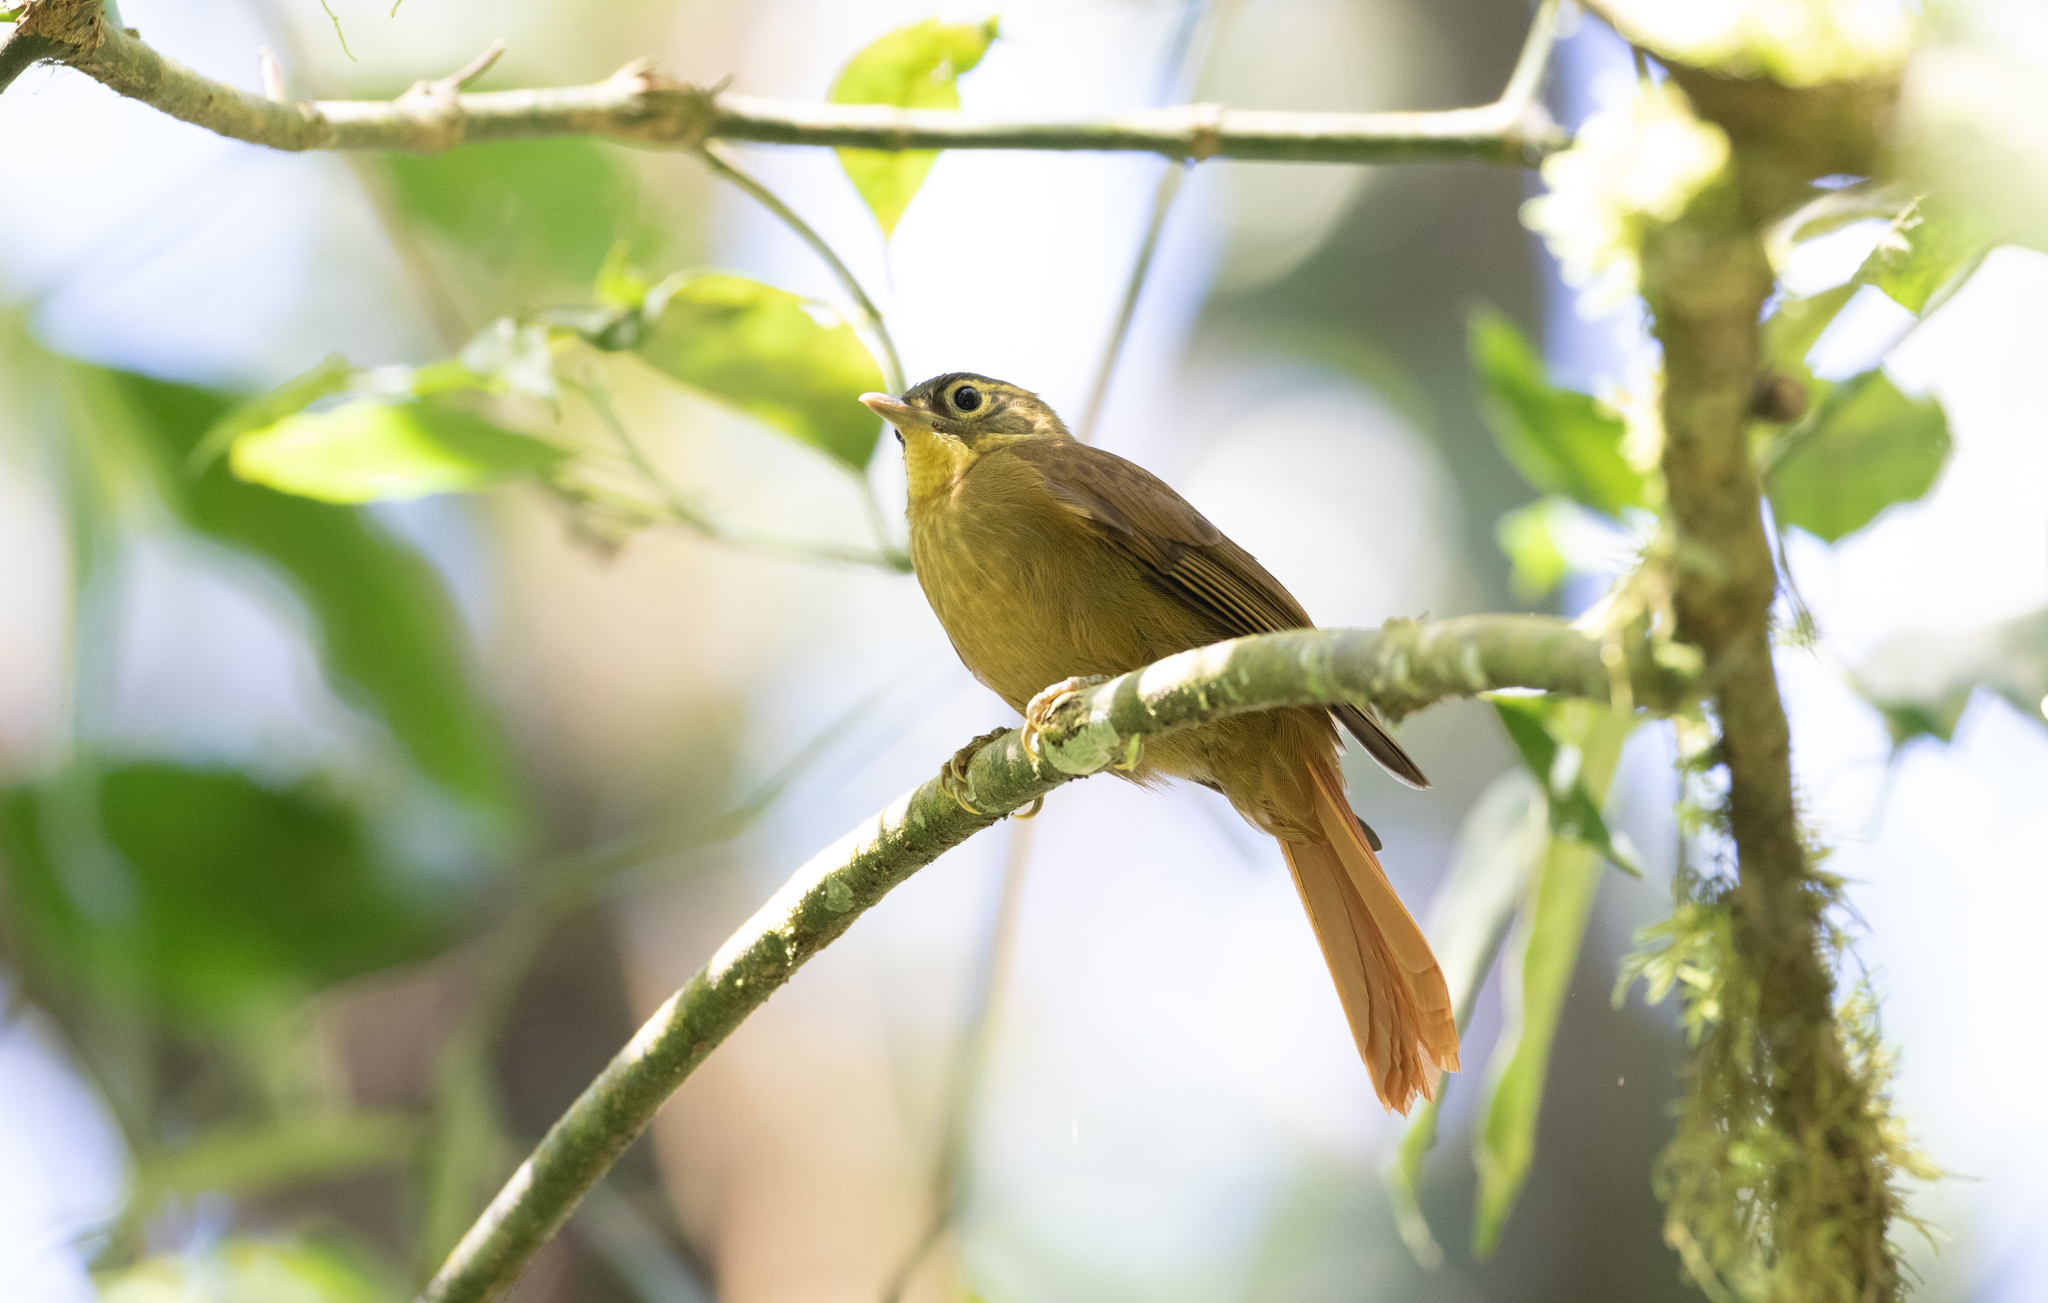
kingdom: Animalia
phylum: Chordata
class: Aves
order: Passeriformes
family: Furnariidae
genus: Anabacerthia
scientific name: Anabacerthia striaticollis
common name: Montane foliage-gleaner
